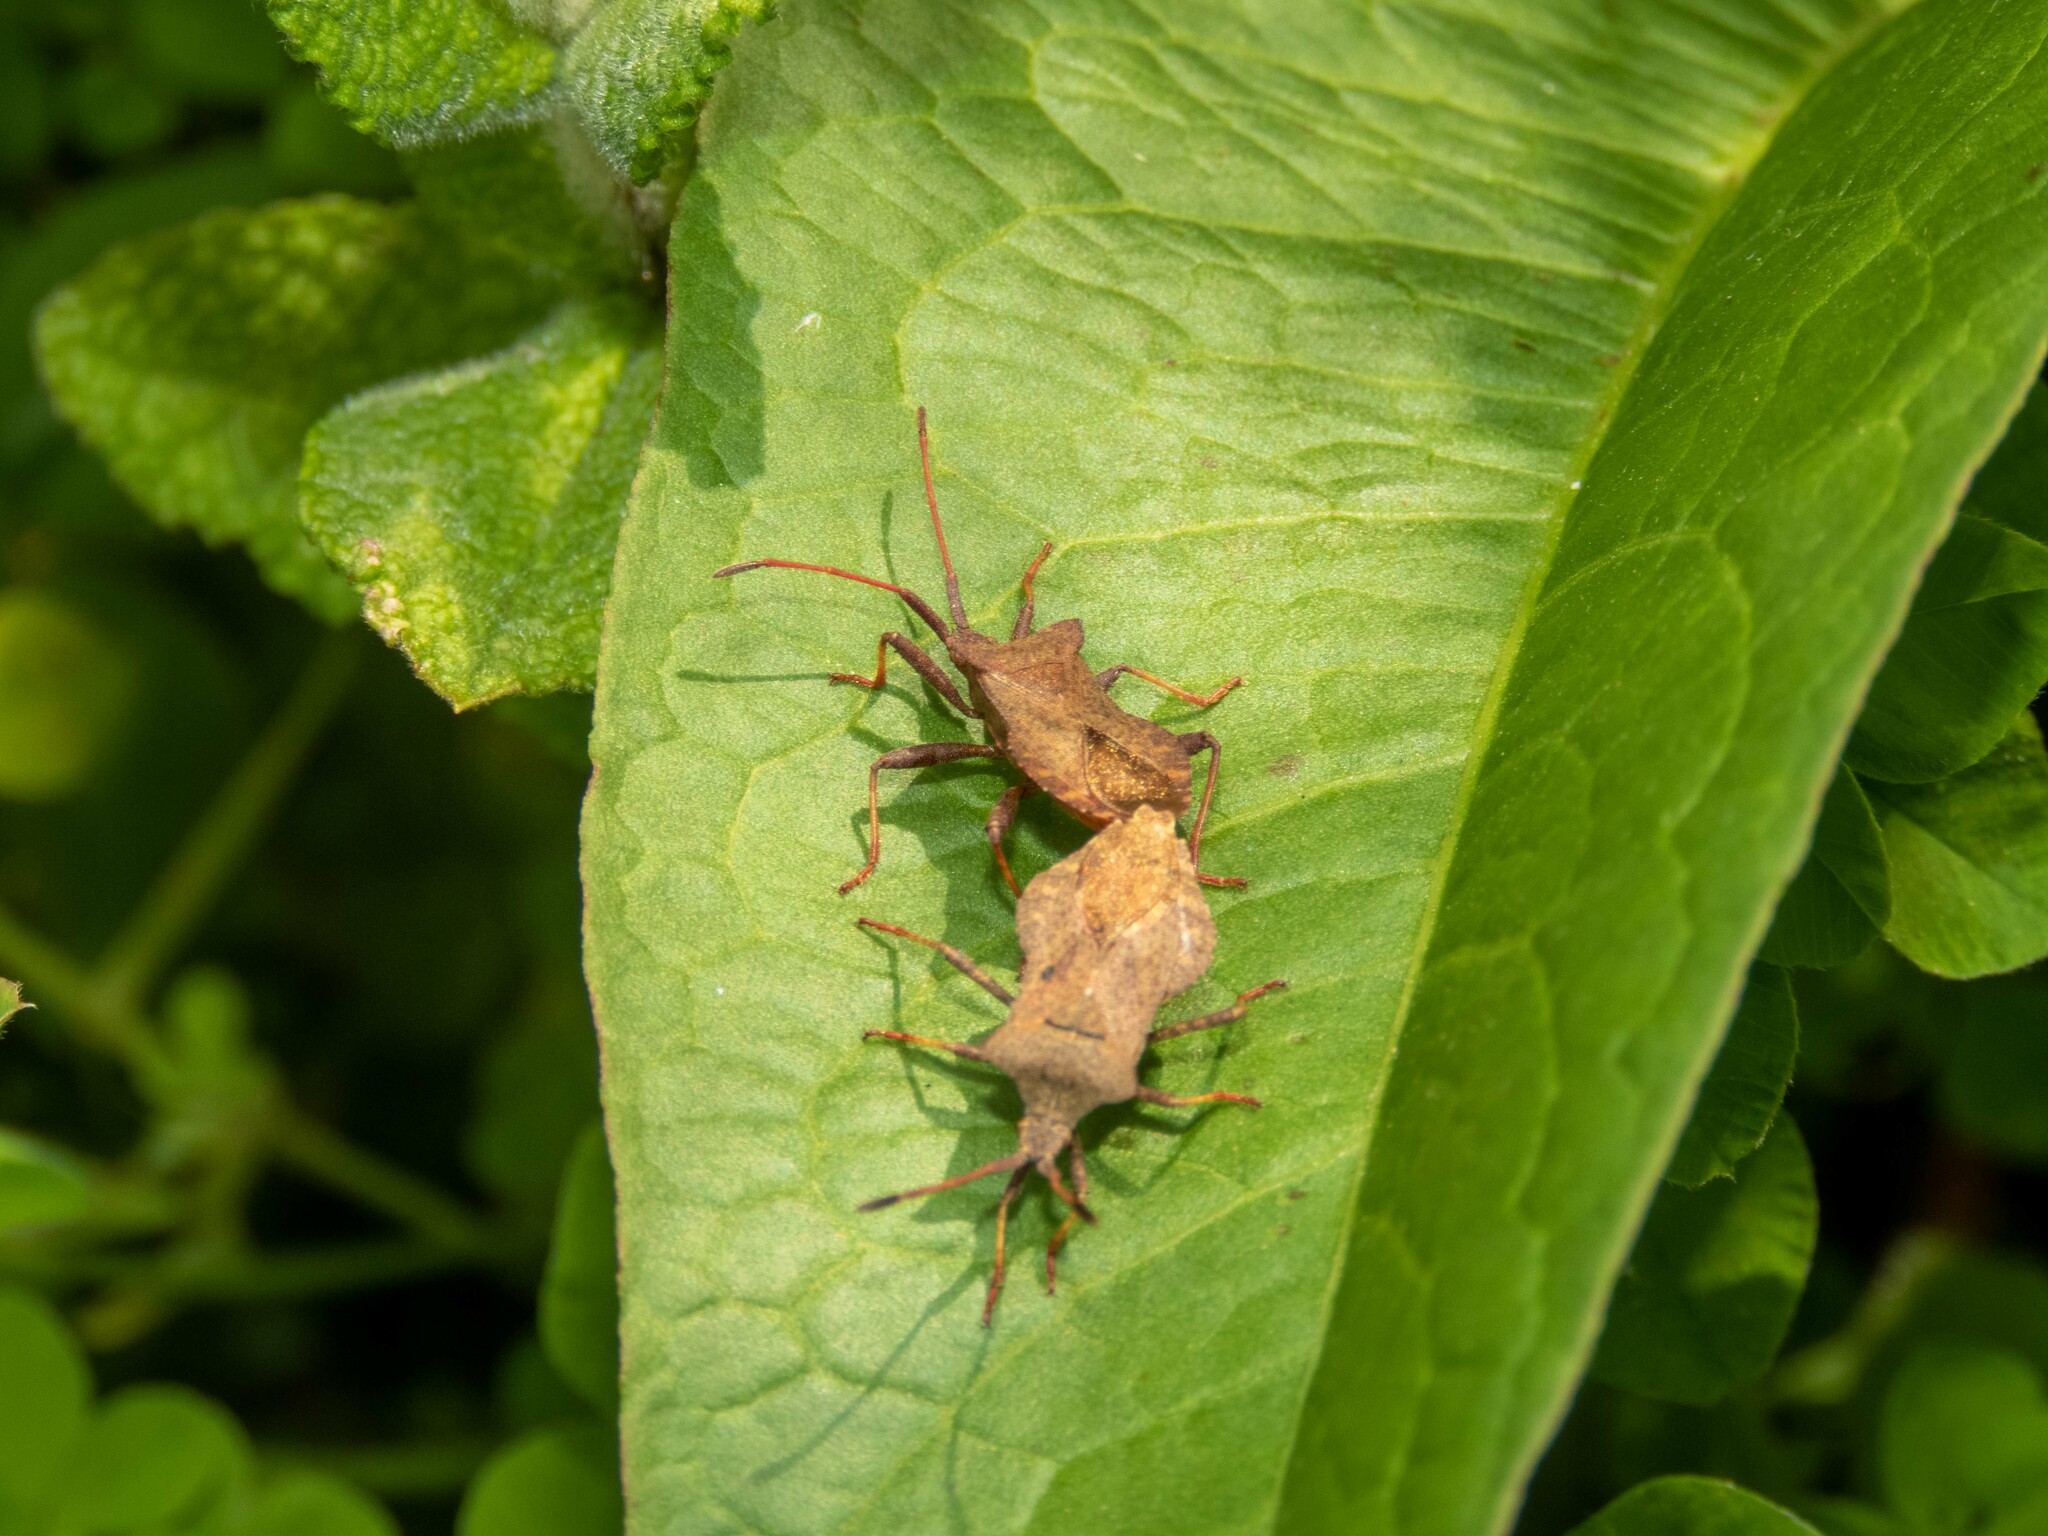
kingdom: Animalia
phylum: Arthropoda
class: Insecta
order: Hemiptera
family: Coreidae
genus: Coreus
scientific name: Coreus marginatus
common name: Dock bug
